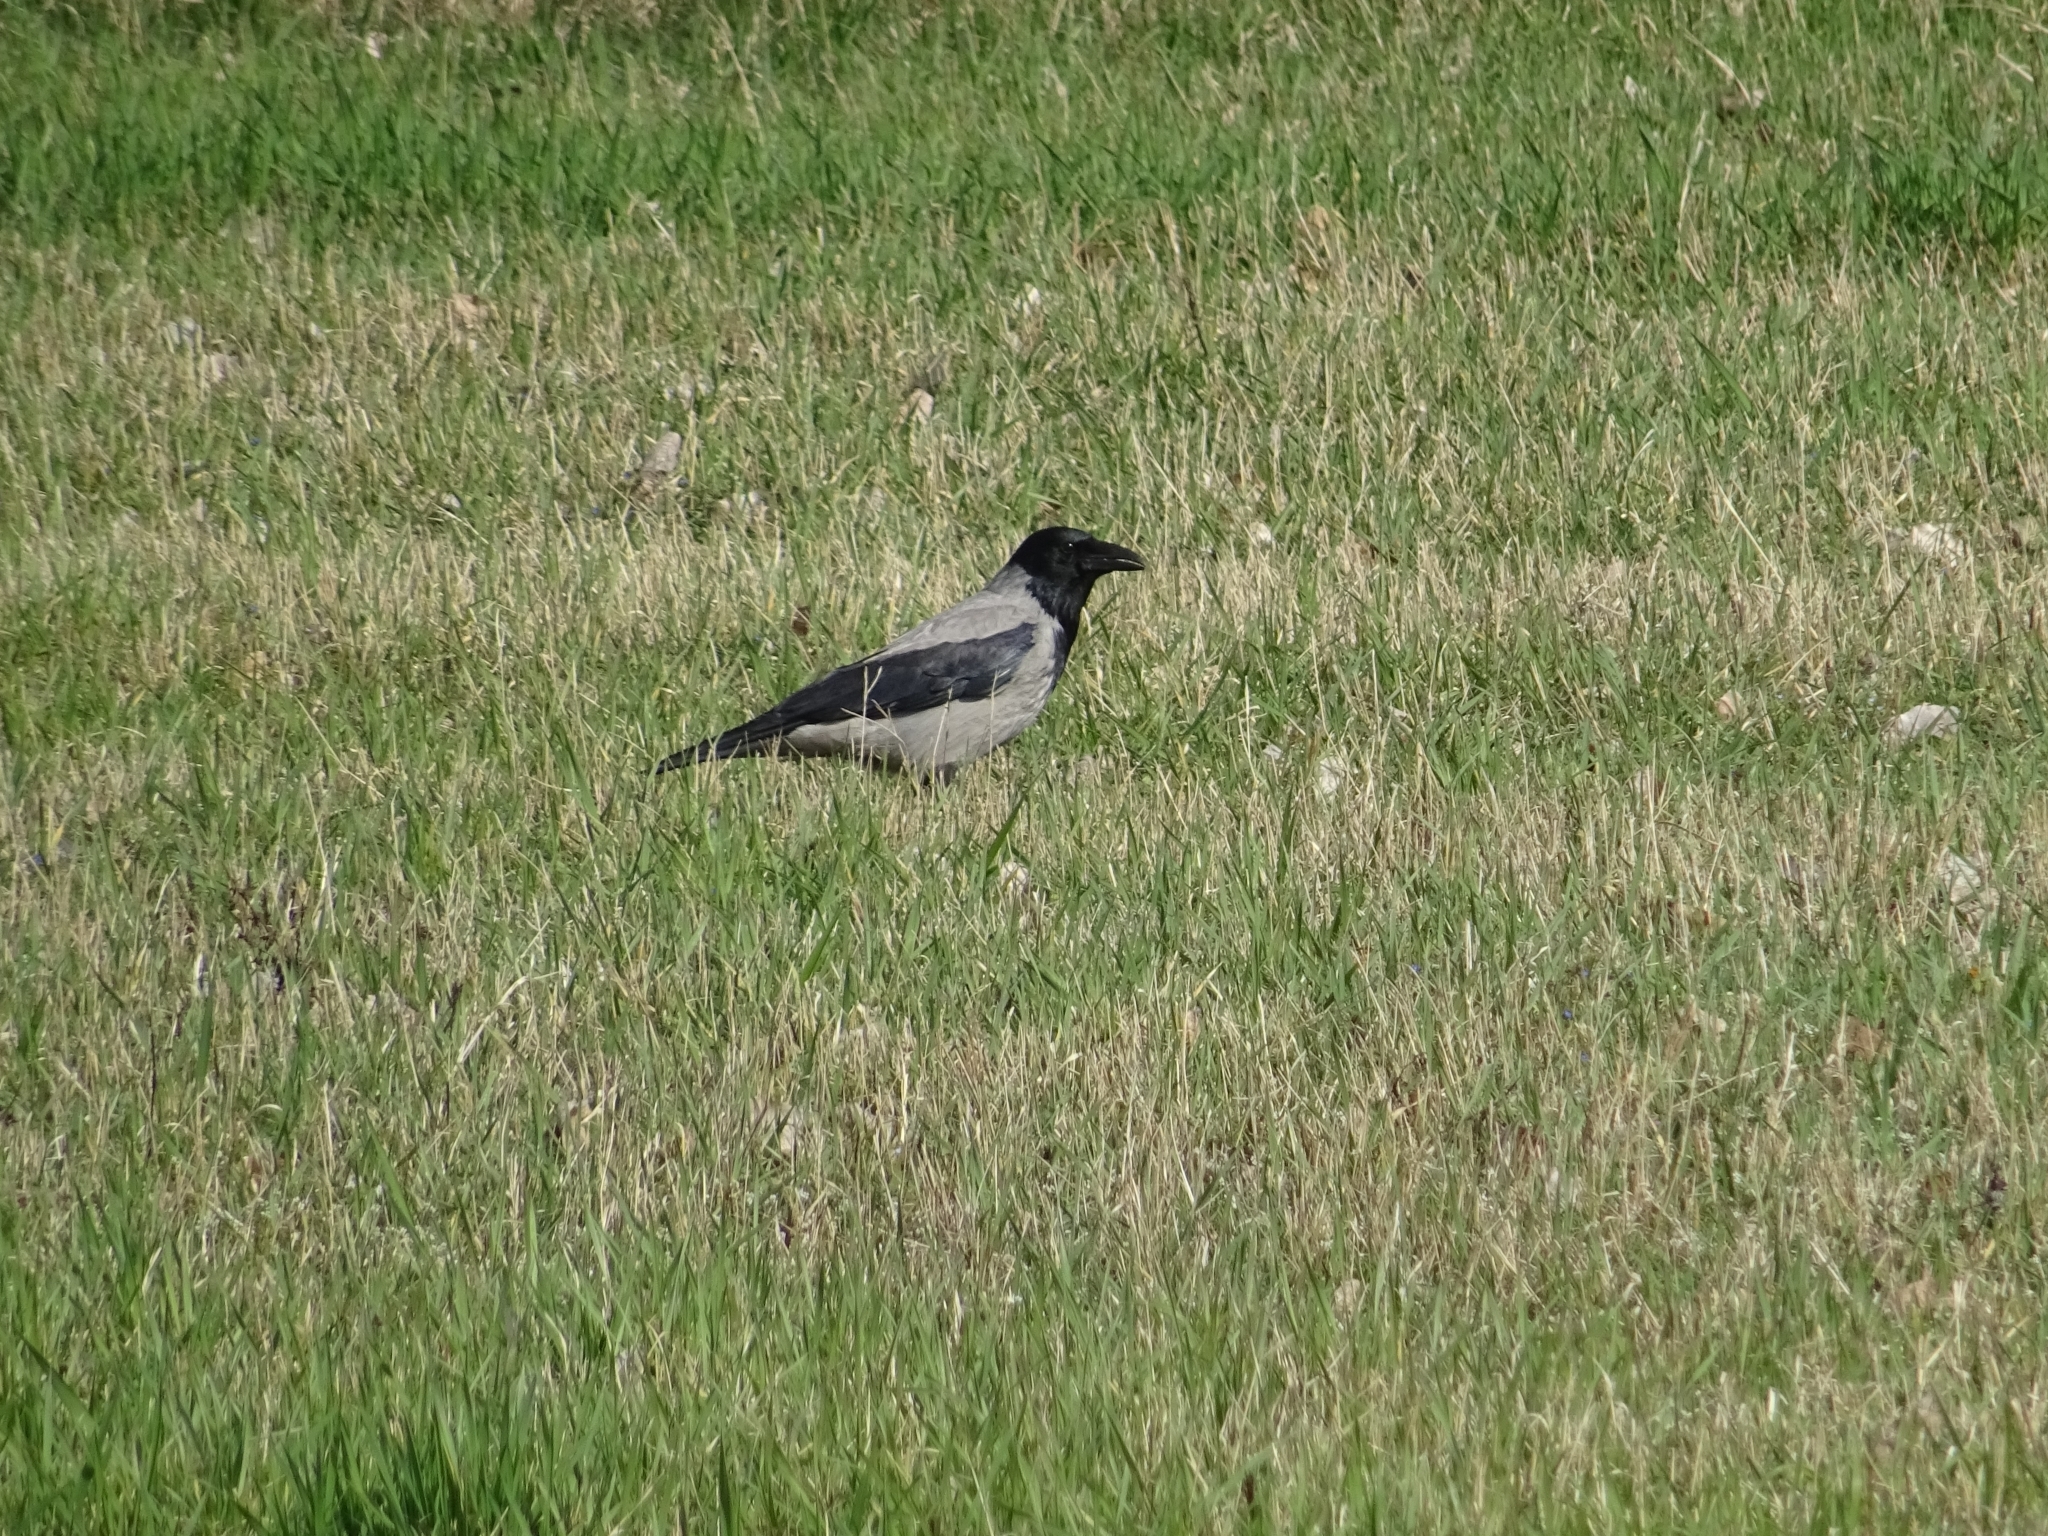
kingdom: Animalia
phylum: Chordata
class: Aves
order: Passeriformes
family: Corvidae
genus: Corvus
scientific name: Corvus cornix
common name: Hooded crow
